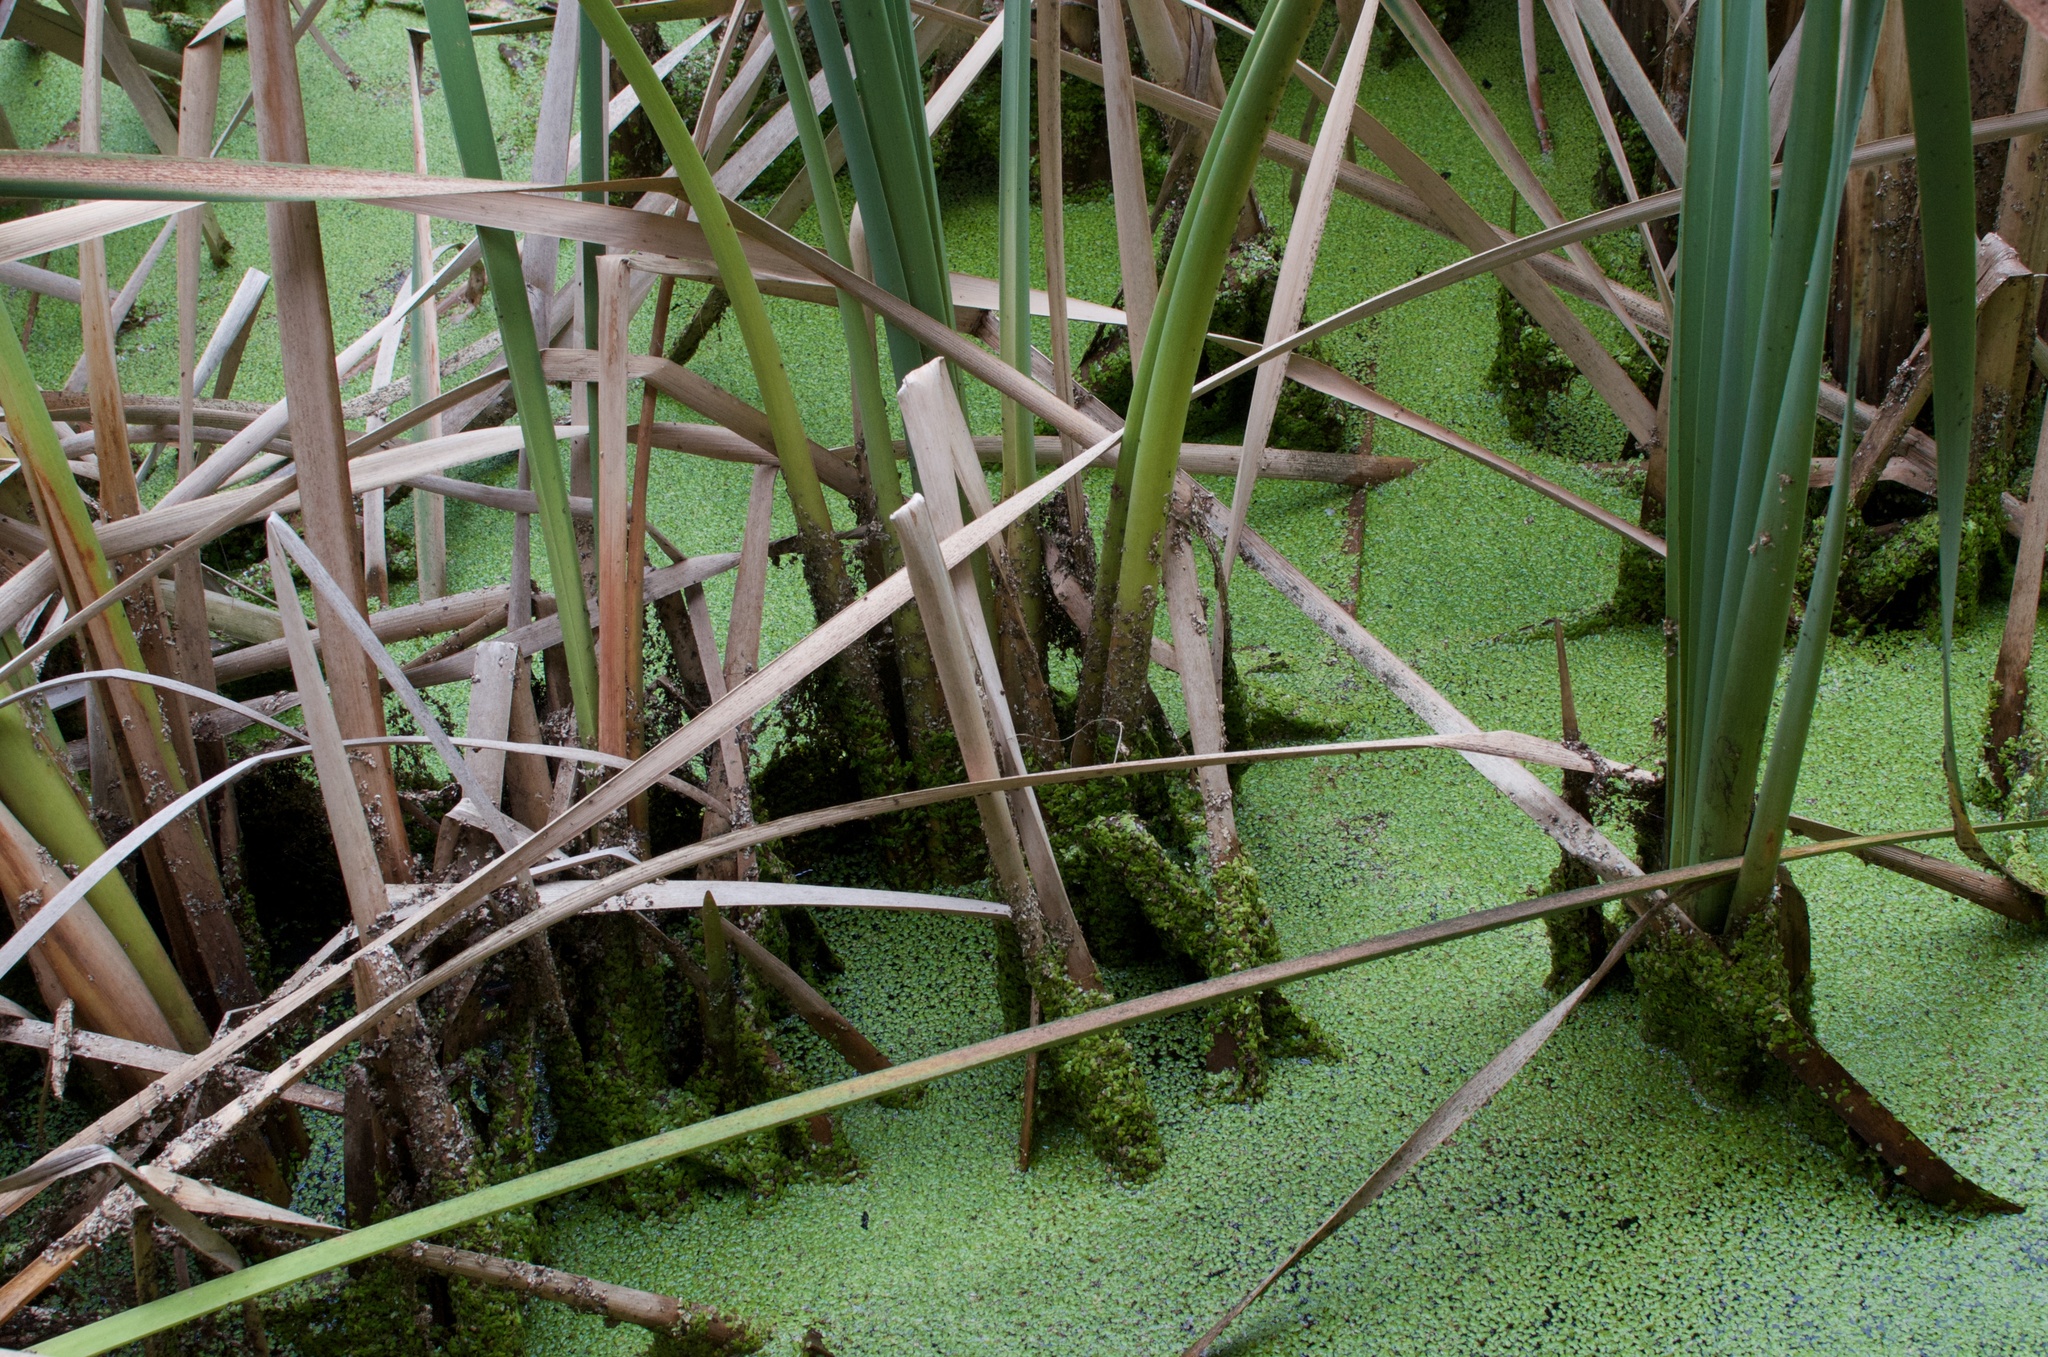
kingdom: Plantae
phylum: Tracheophyta
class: Liliopsida
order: Poales
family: Typhaceae
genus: Typha
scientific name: Typha orientalis
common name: Bullrush
